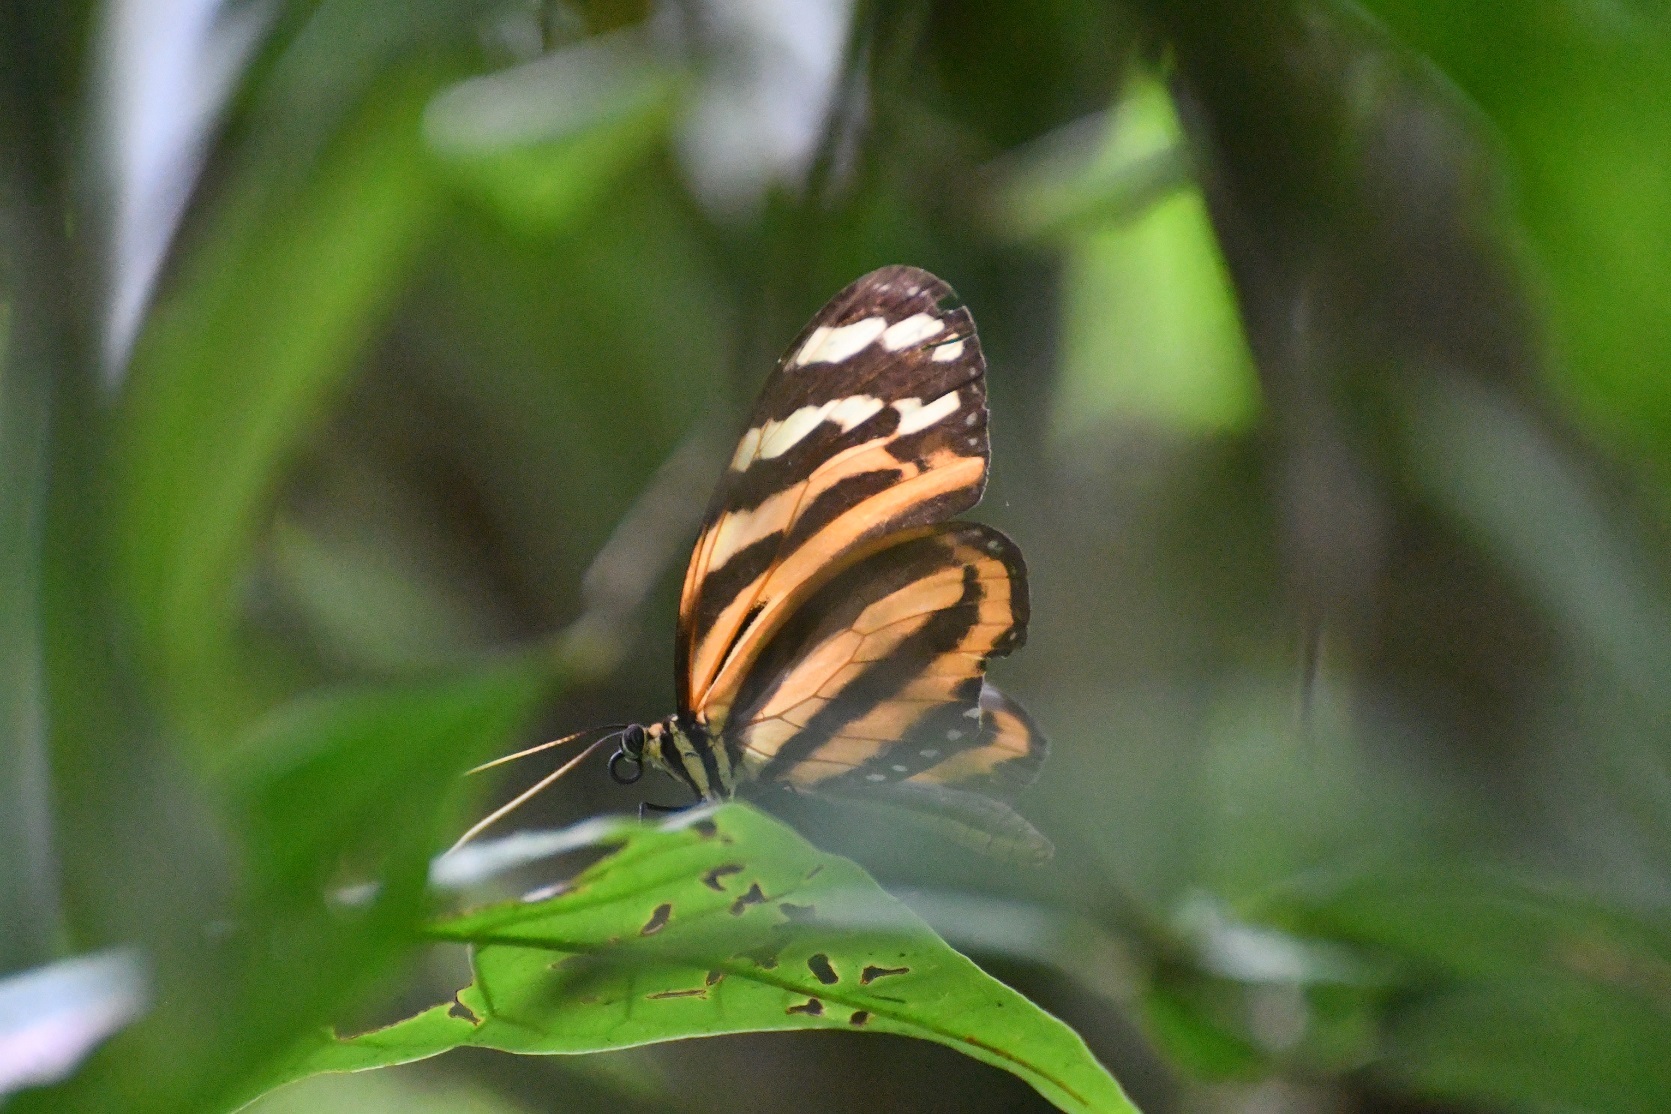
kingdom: Animalia
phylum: Arthropoda
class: Insecta
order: Lepidoptera
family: Nymphalidae
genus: Melinaea
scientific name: Melinaea lilis
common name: Mimic tigerwing
